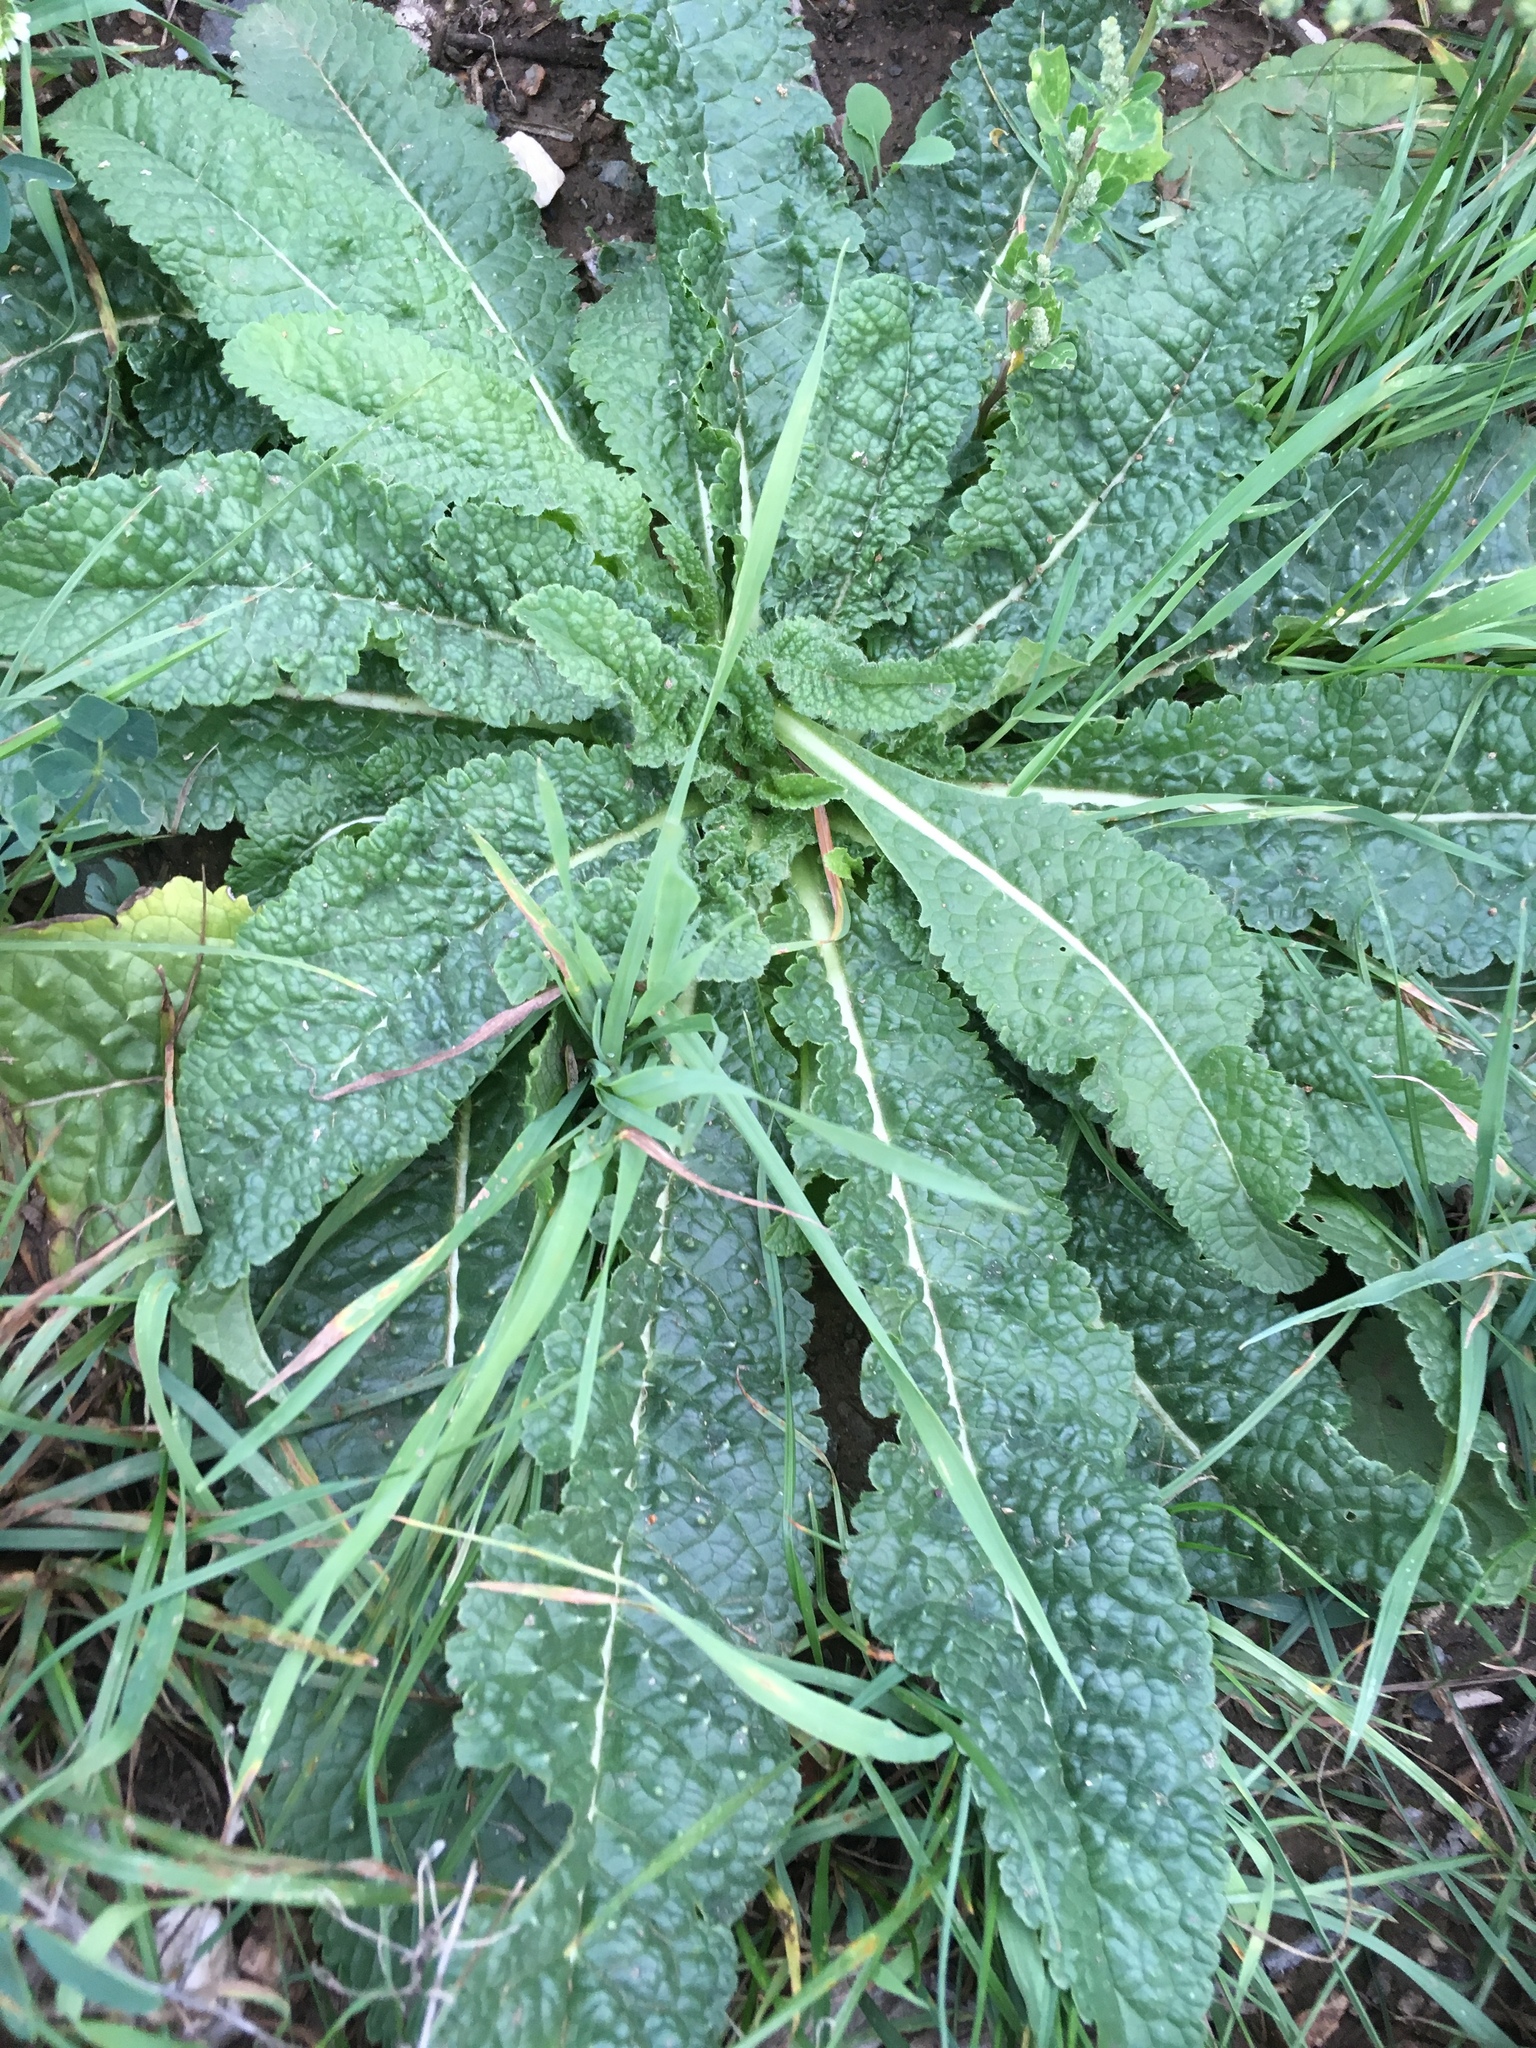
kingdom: Plantae
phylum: Tracheophyta
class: Magnoliopsida
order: Dipsacales
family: Caprifoliaceae
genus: Dipsacus
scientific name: Dipsacus fullonum
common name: Teasel
